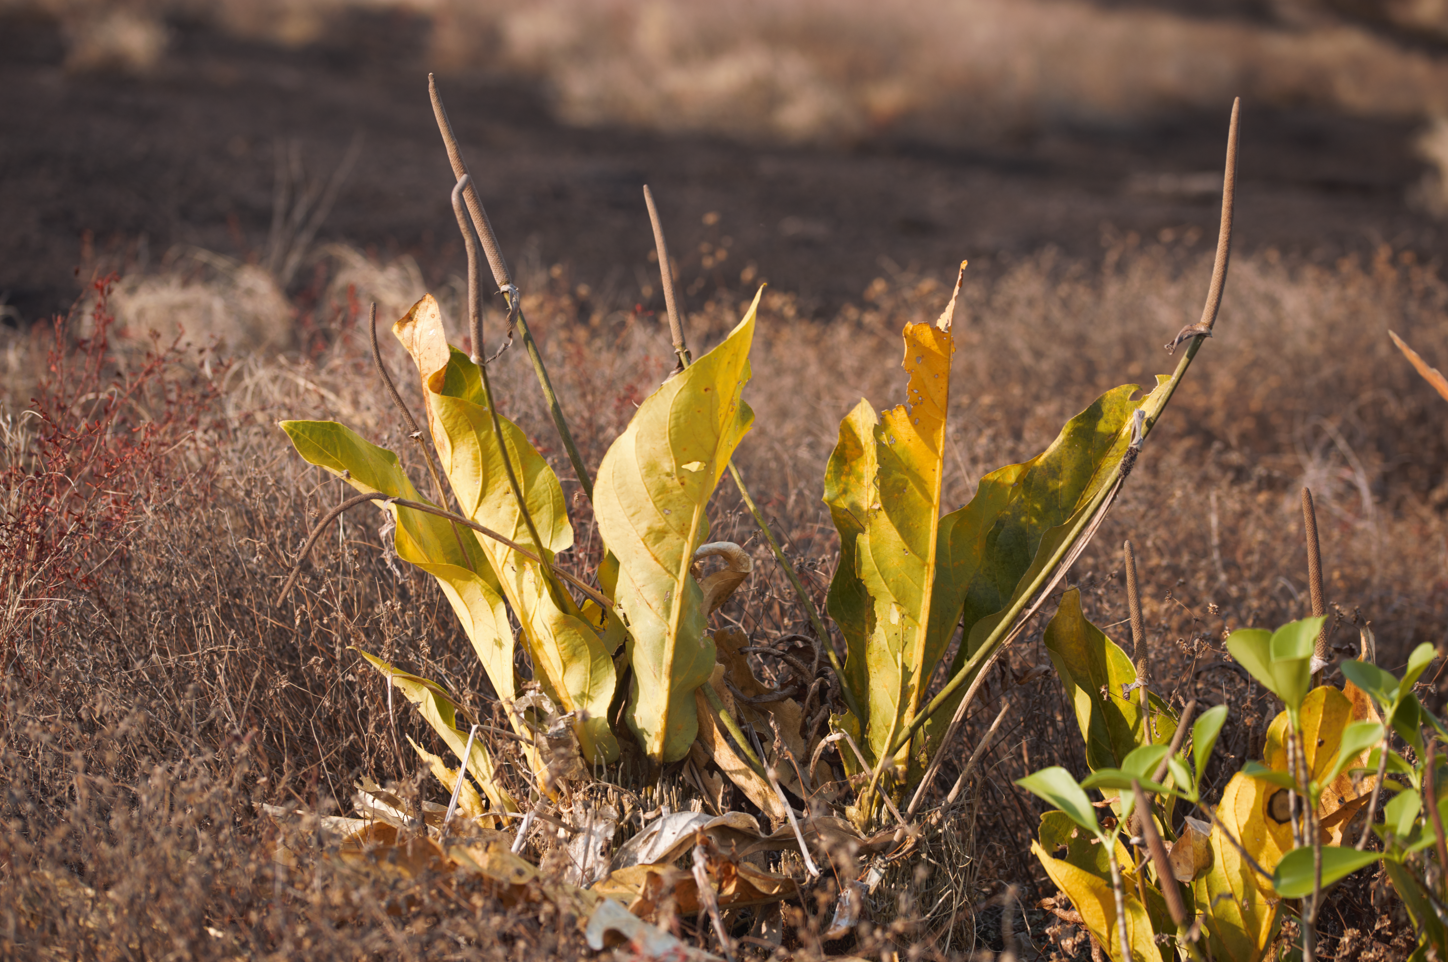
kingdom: Plantae
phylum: Tracheophyta
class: Liliopsida
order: Alismatales
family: Araceae
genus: Anthurium
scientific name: Anthurium jenmanii
